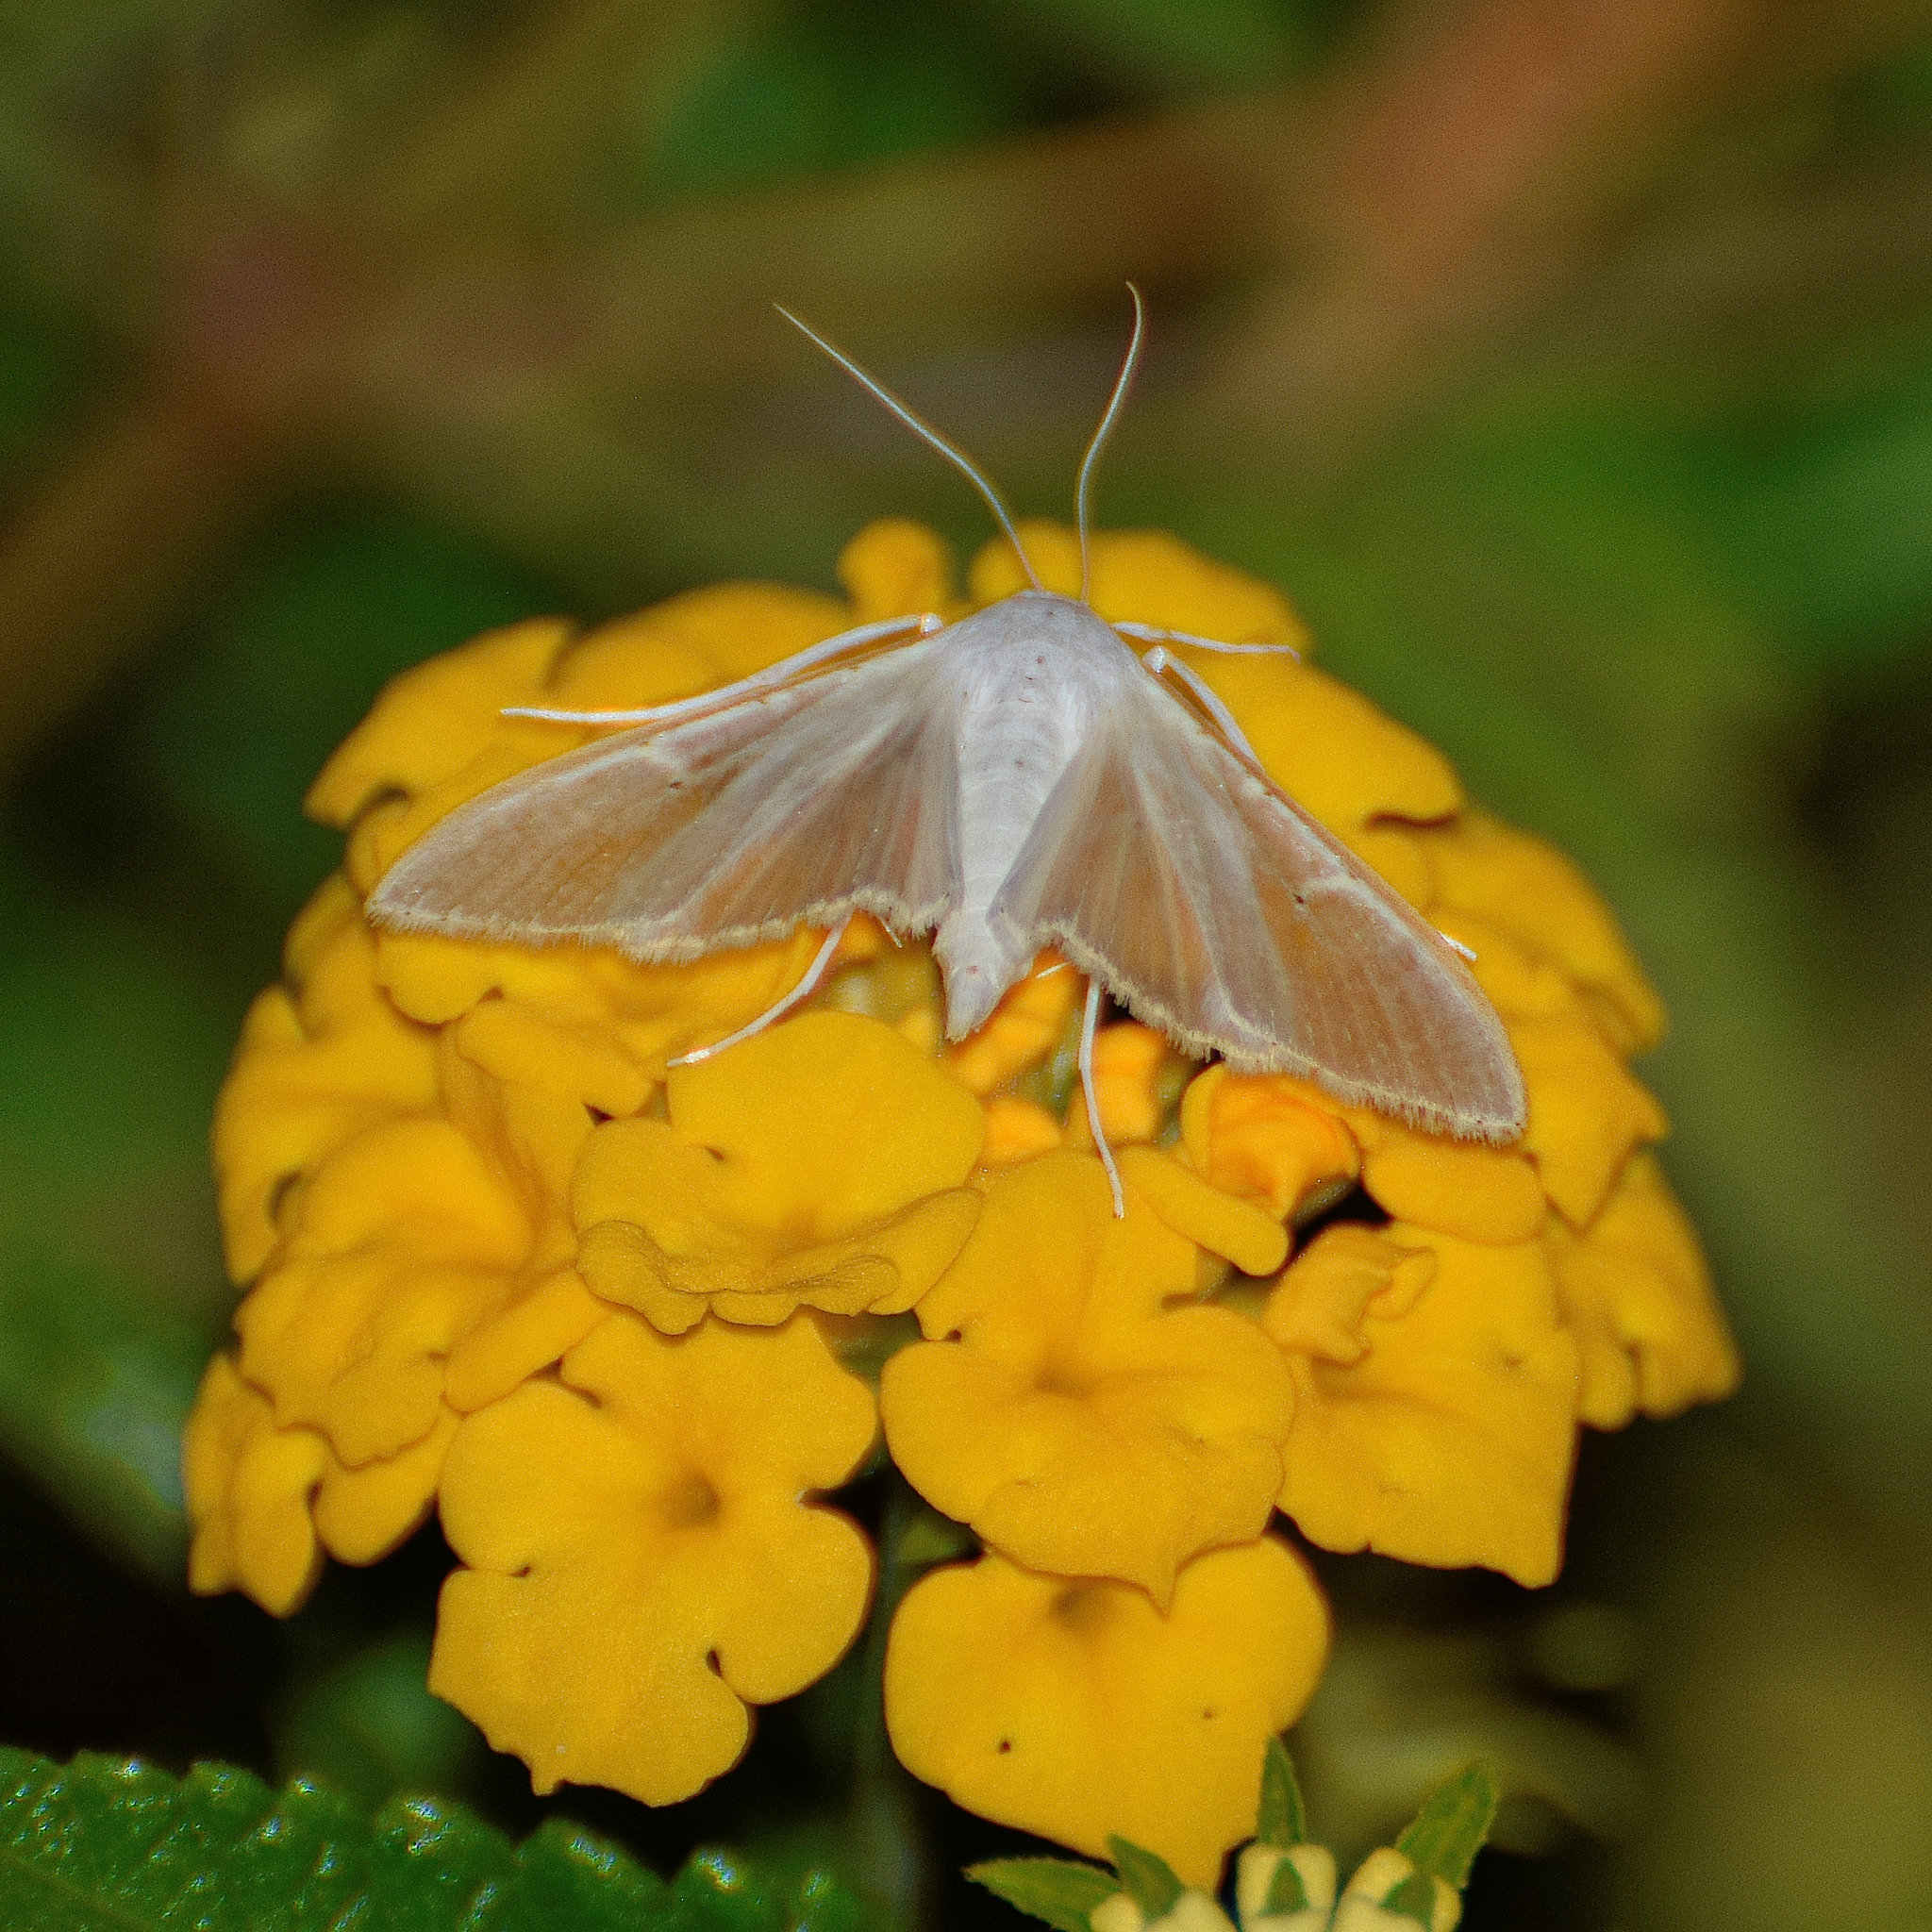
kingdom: Animalia
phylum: Arthropoda
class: Insecta
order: Lepidoptera
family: Crambidae
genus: Palpita
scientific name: Palpita vitrealis
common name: Olive-tree pearl
